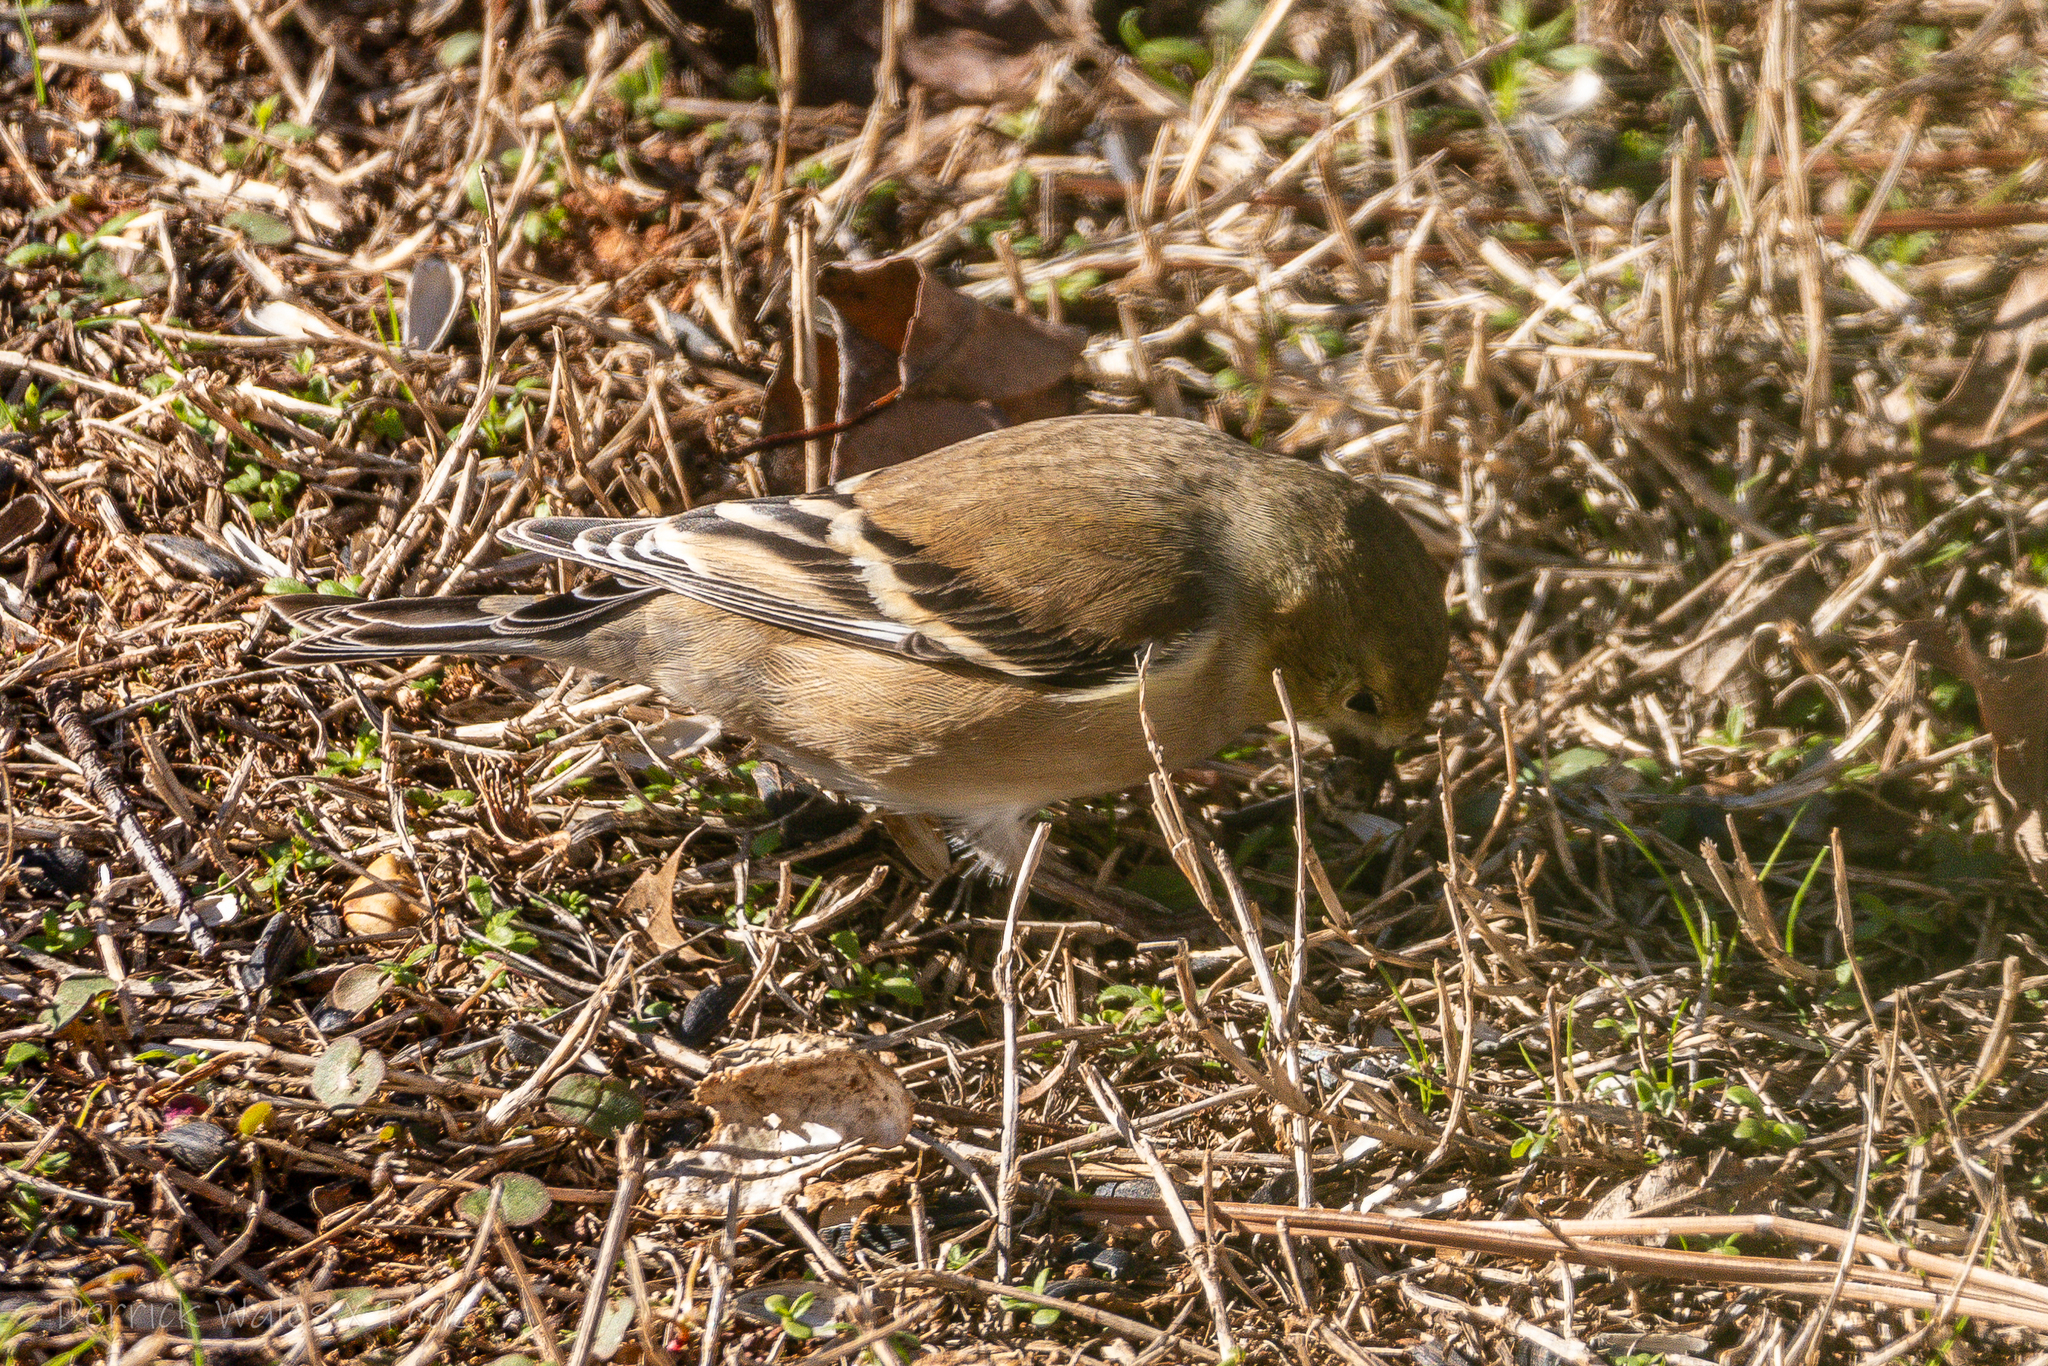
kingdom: Animalia
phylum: Chordata
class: Aves
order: Passeriformes
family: Fringillidae
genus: Spinus
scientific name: Spinus tristis
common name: American goldfinch
